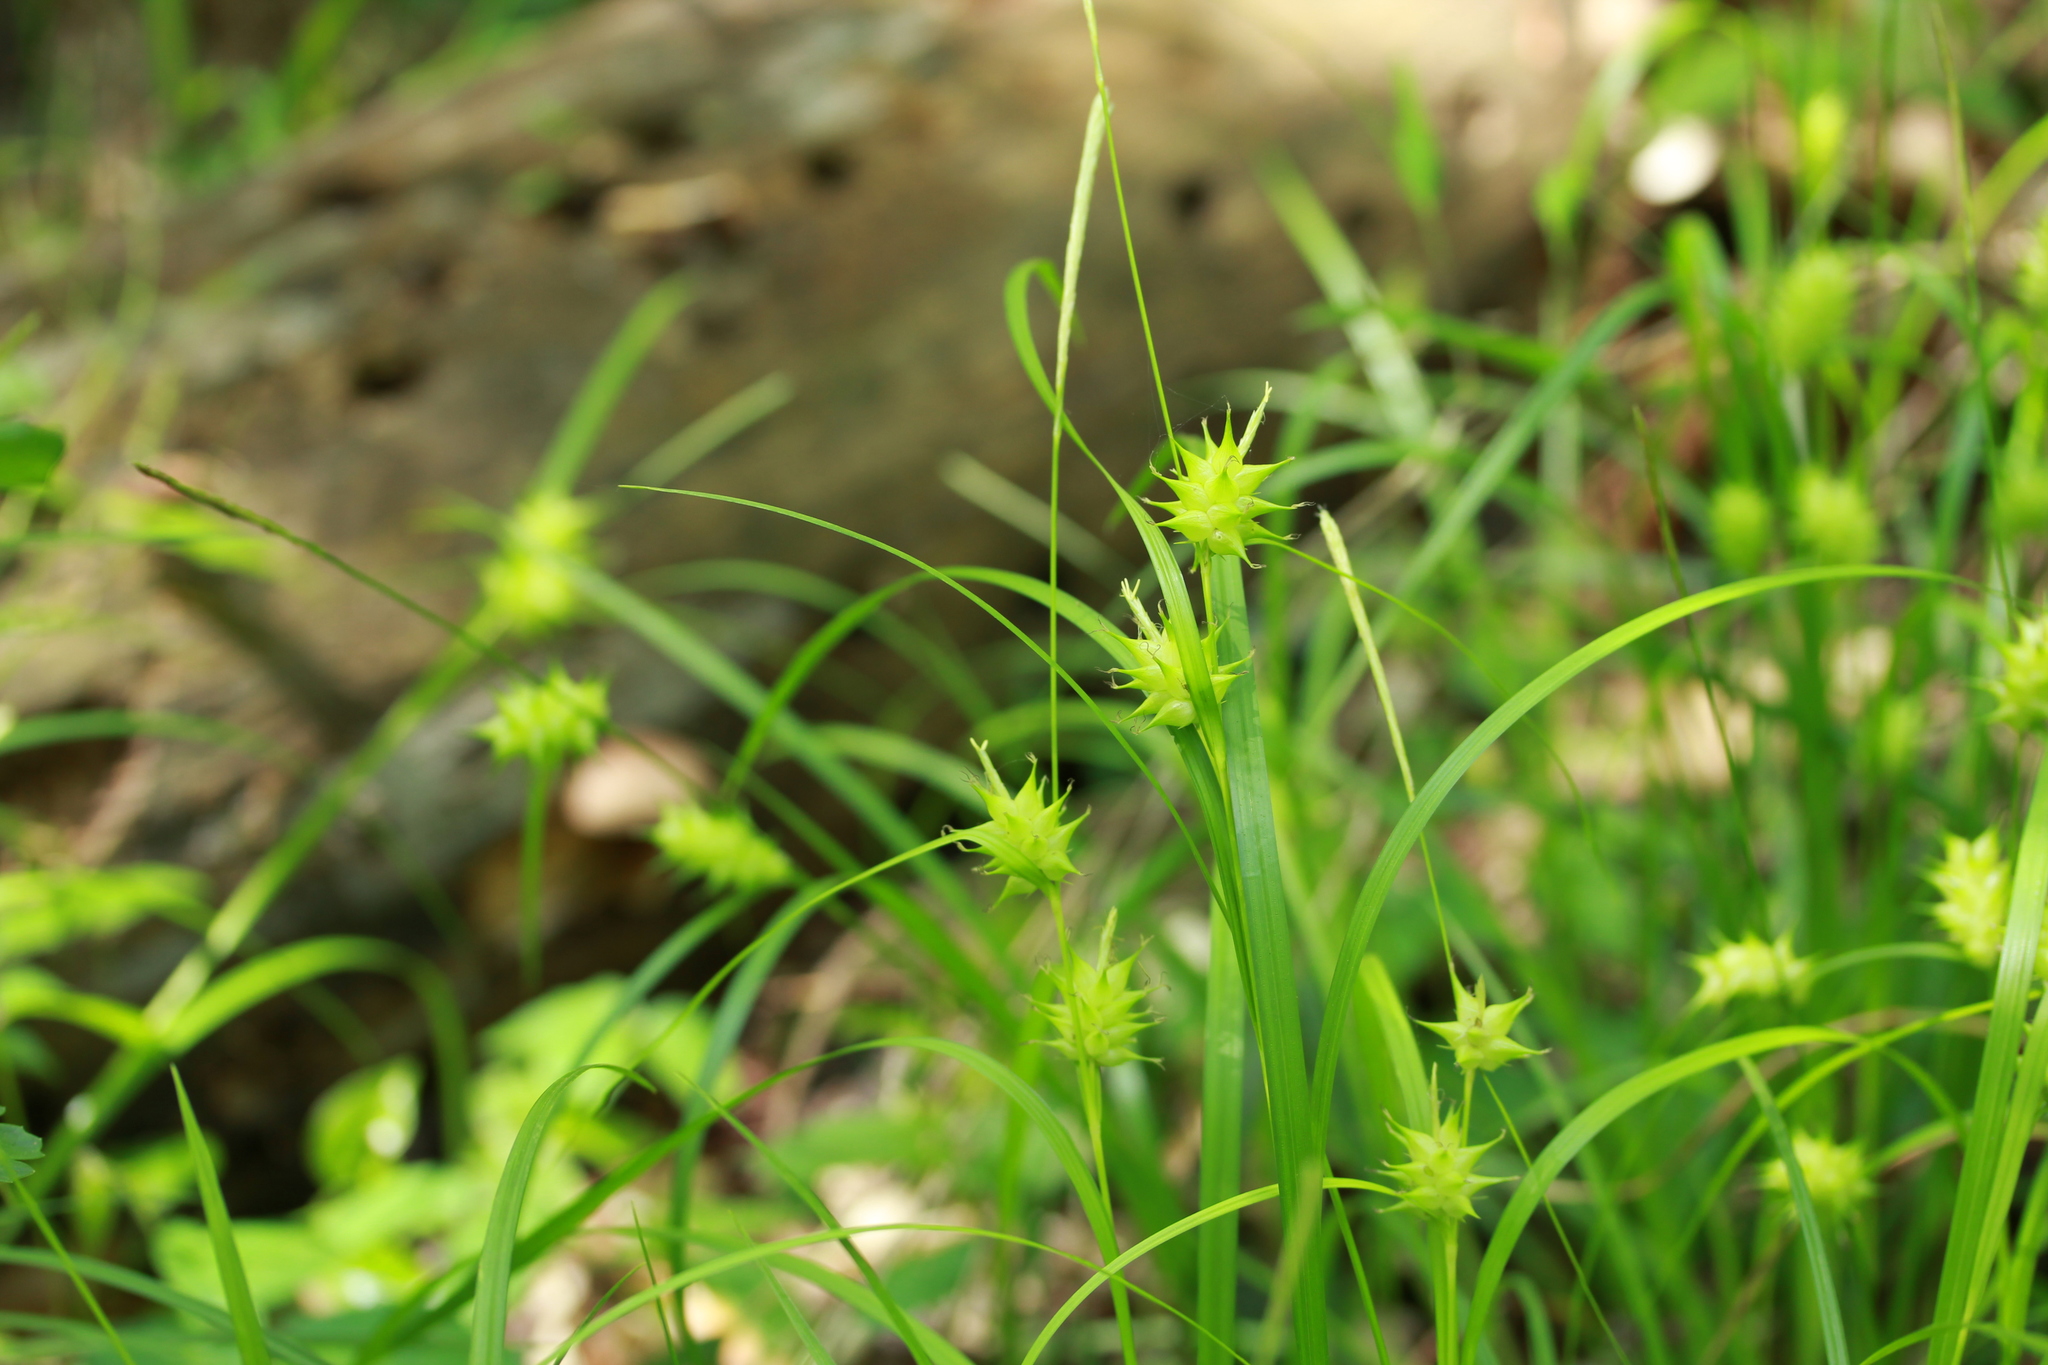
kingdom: Plantae
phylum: Tracheophyta
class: Liliopsida
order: Poales
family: Cyperaceae
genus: Carex
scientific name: Carex louisianica
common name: Louisiana sedge
